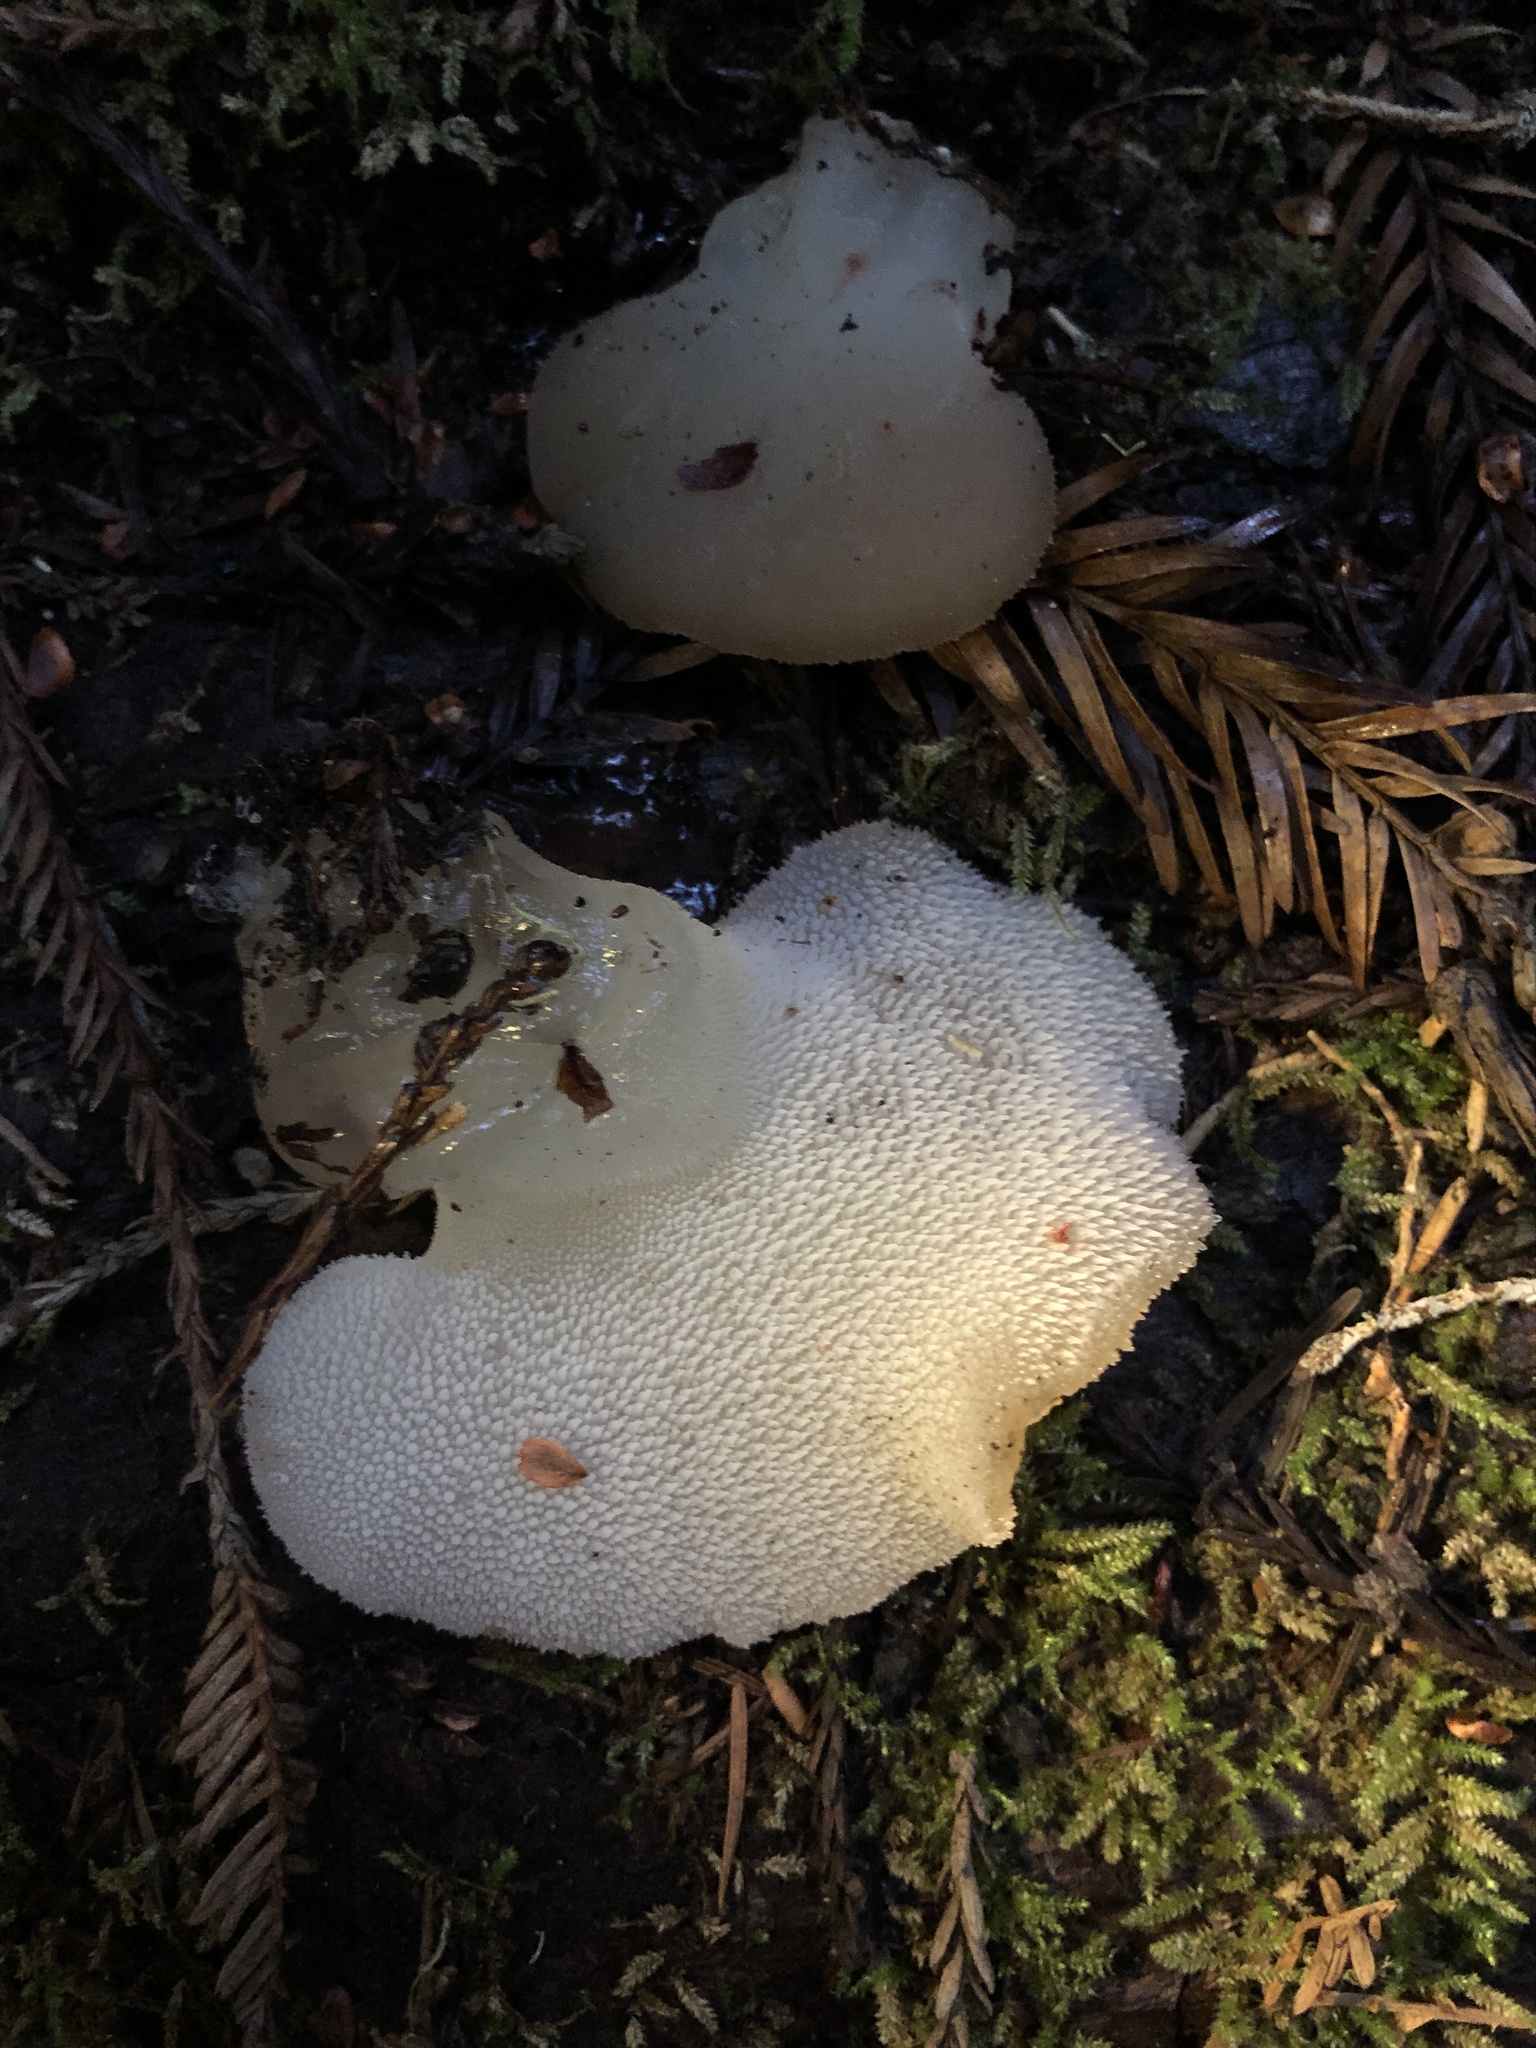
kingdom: Fungi
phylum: Basidiomycota
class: Agaricomycetes
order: Auriculariales
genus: Pseudohydnum
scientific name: Pseudohydnum gelatinosum
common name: Jelly tongue
